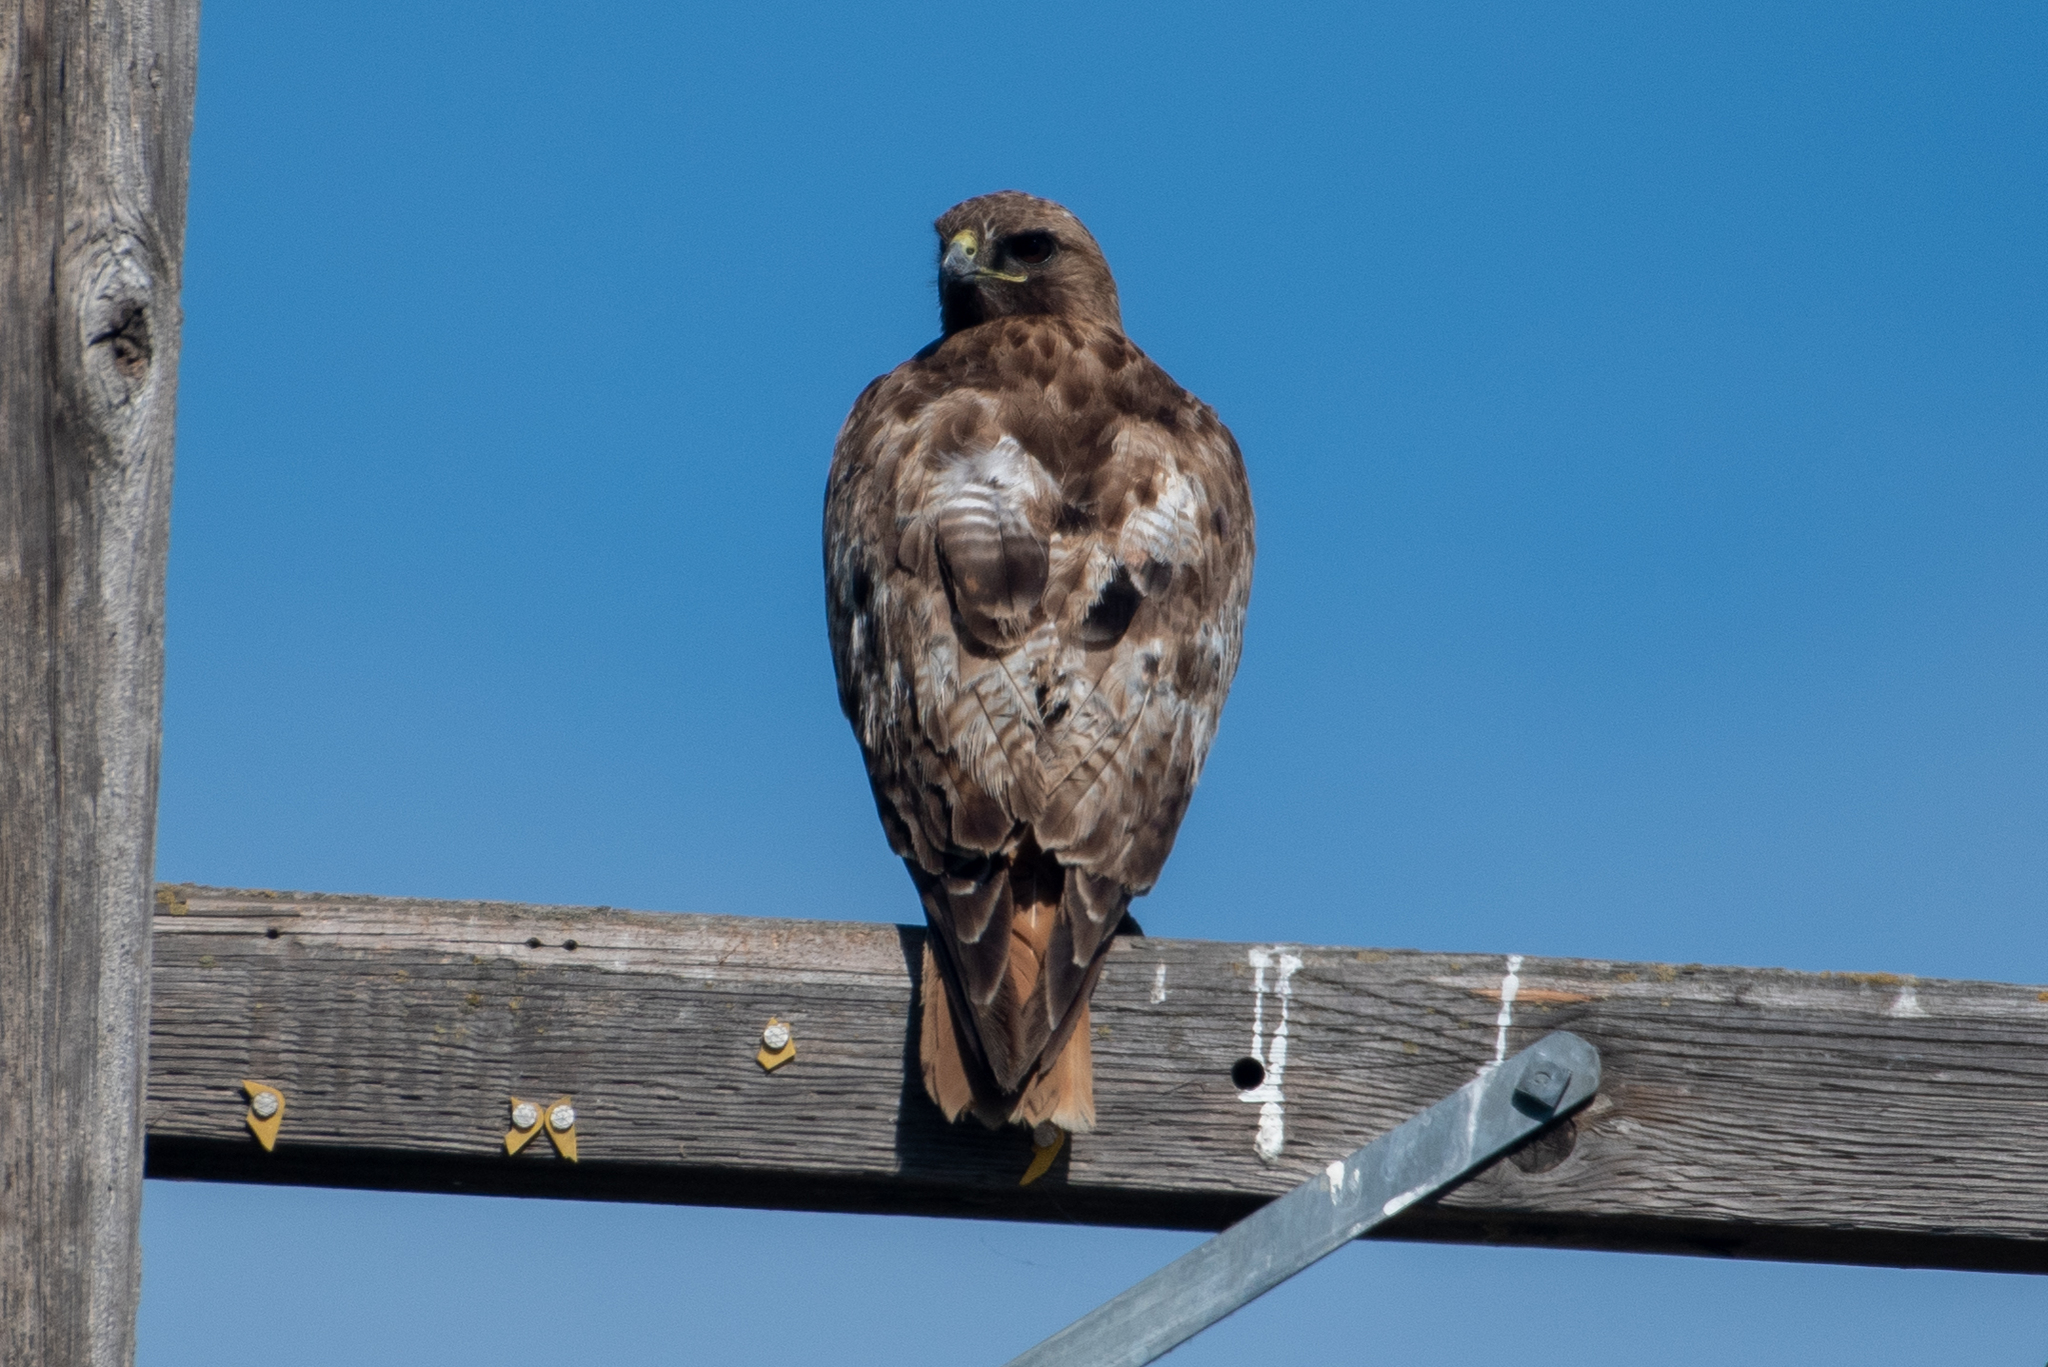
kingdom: Animalia
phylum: Chordata
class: Aves
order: Accipitriformes
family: Accipitridae
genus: Buteo
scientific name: Buteo jamaicensis
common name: Red-tailed hawk
